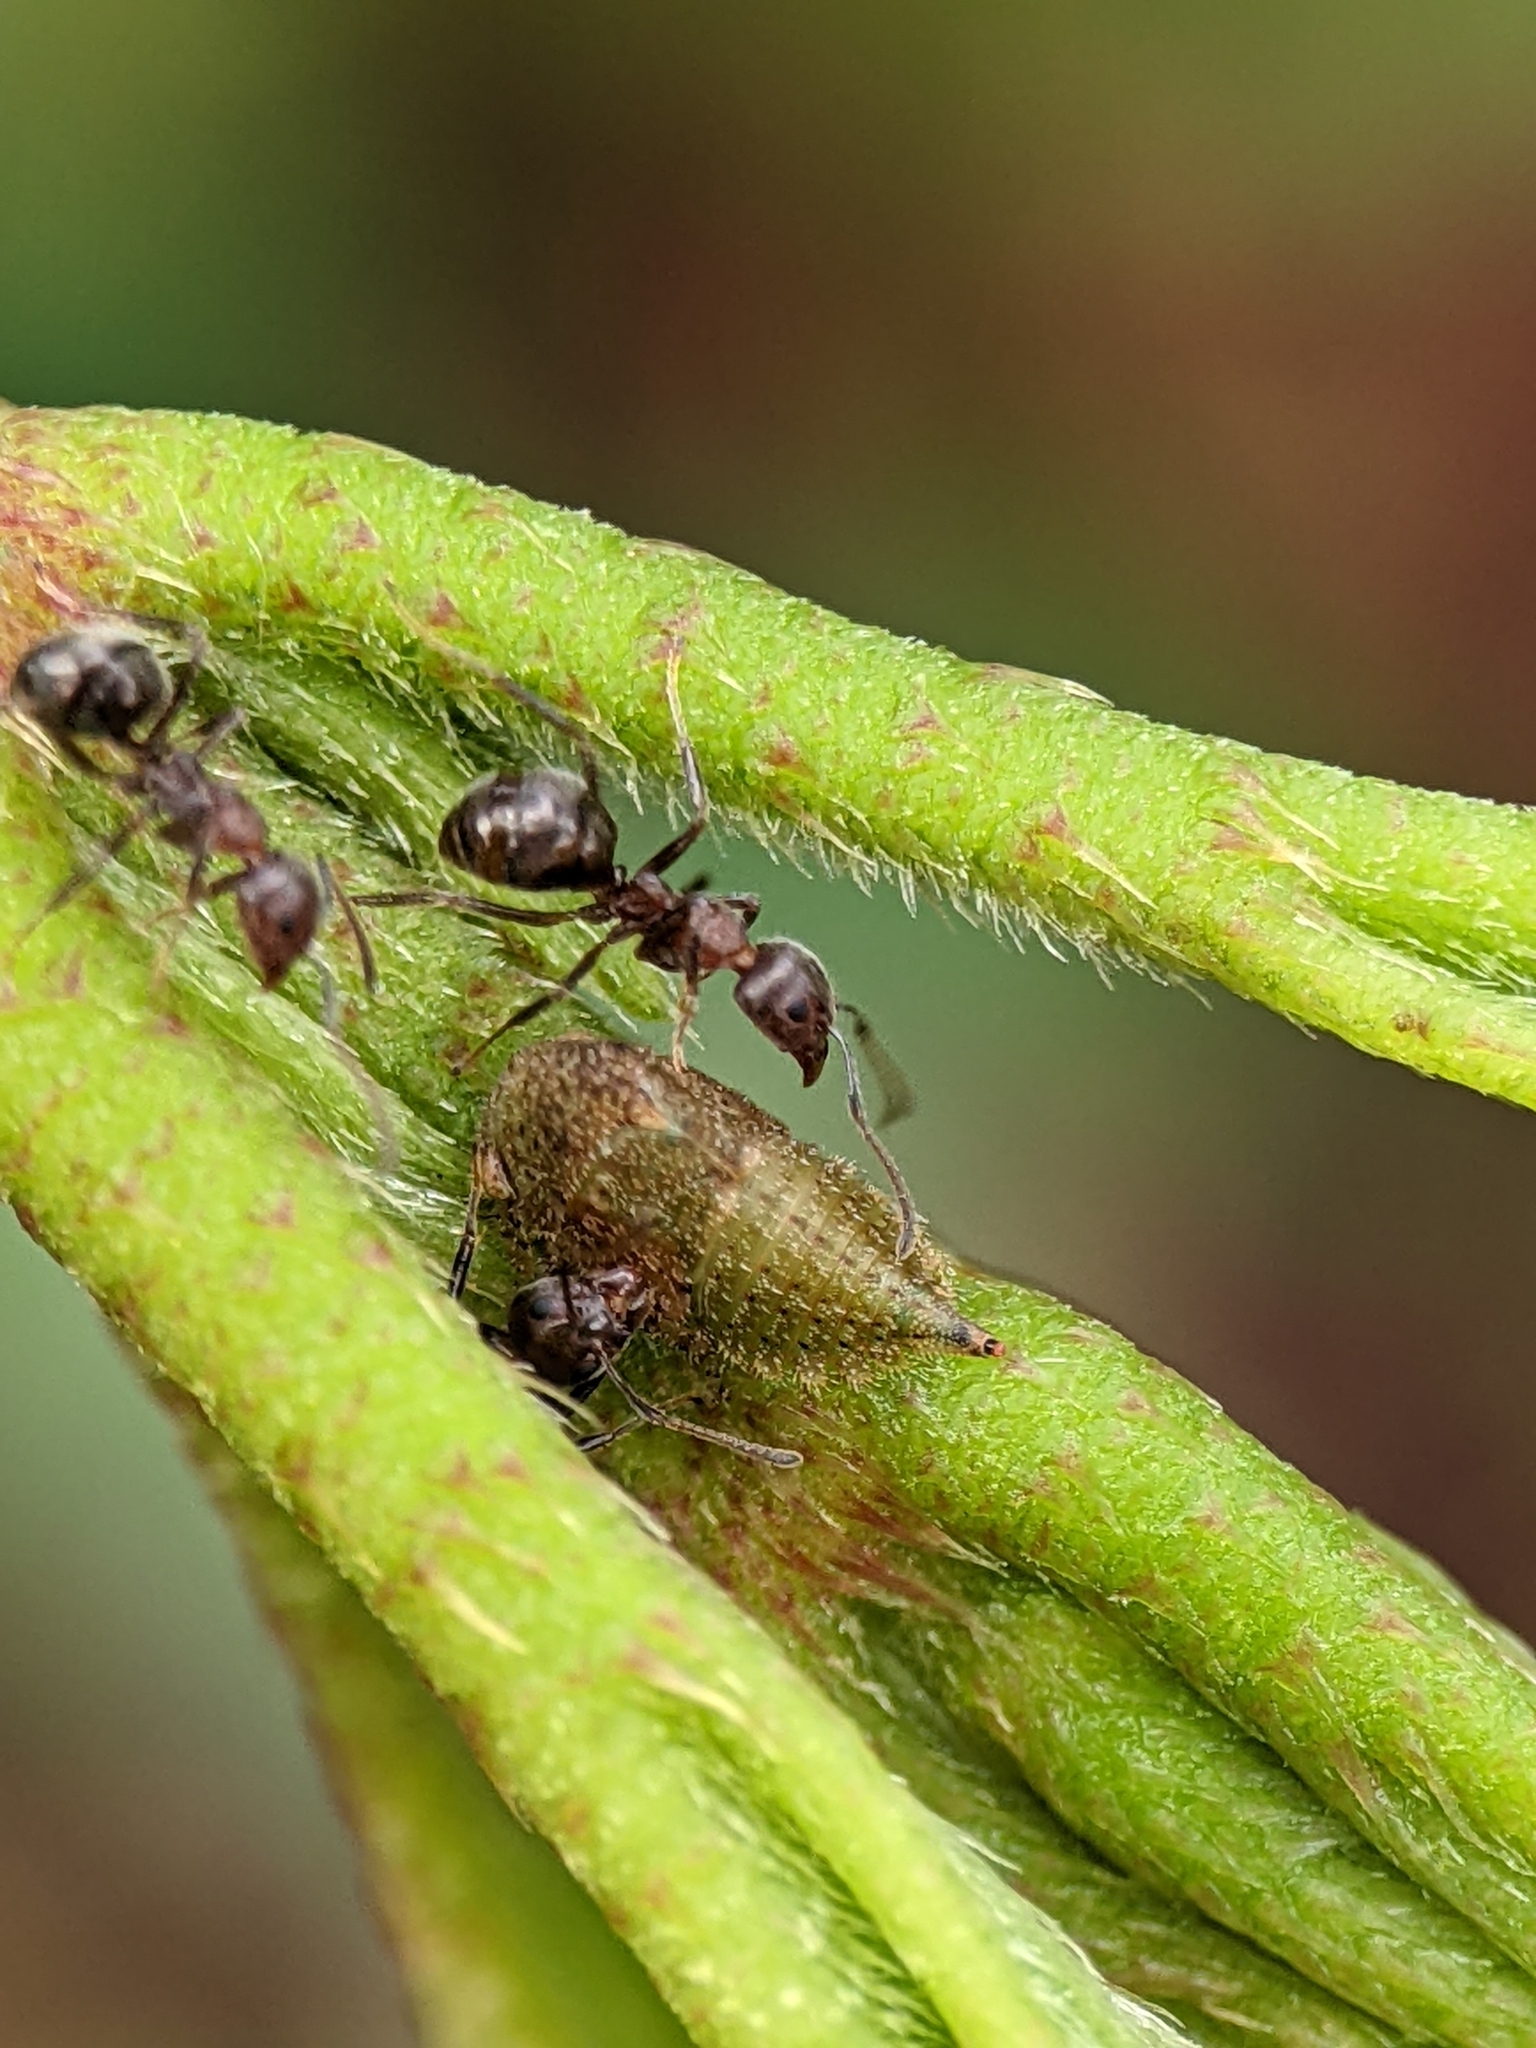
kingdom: Animalia
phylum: Arthropoda
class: Insecta
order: Hymenoptera
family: Formicidae
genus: Dolichoderus
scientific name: Dolichoderus thoracicus
